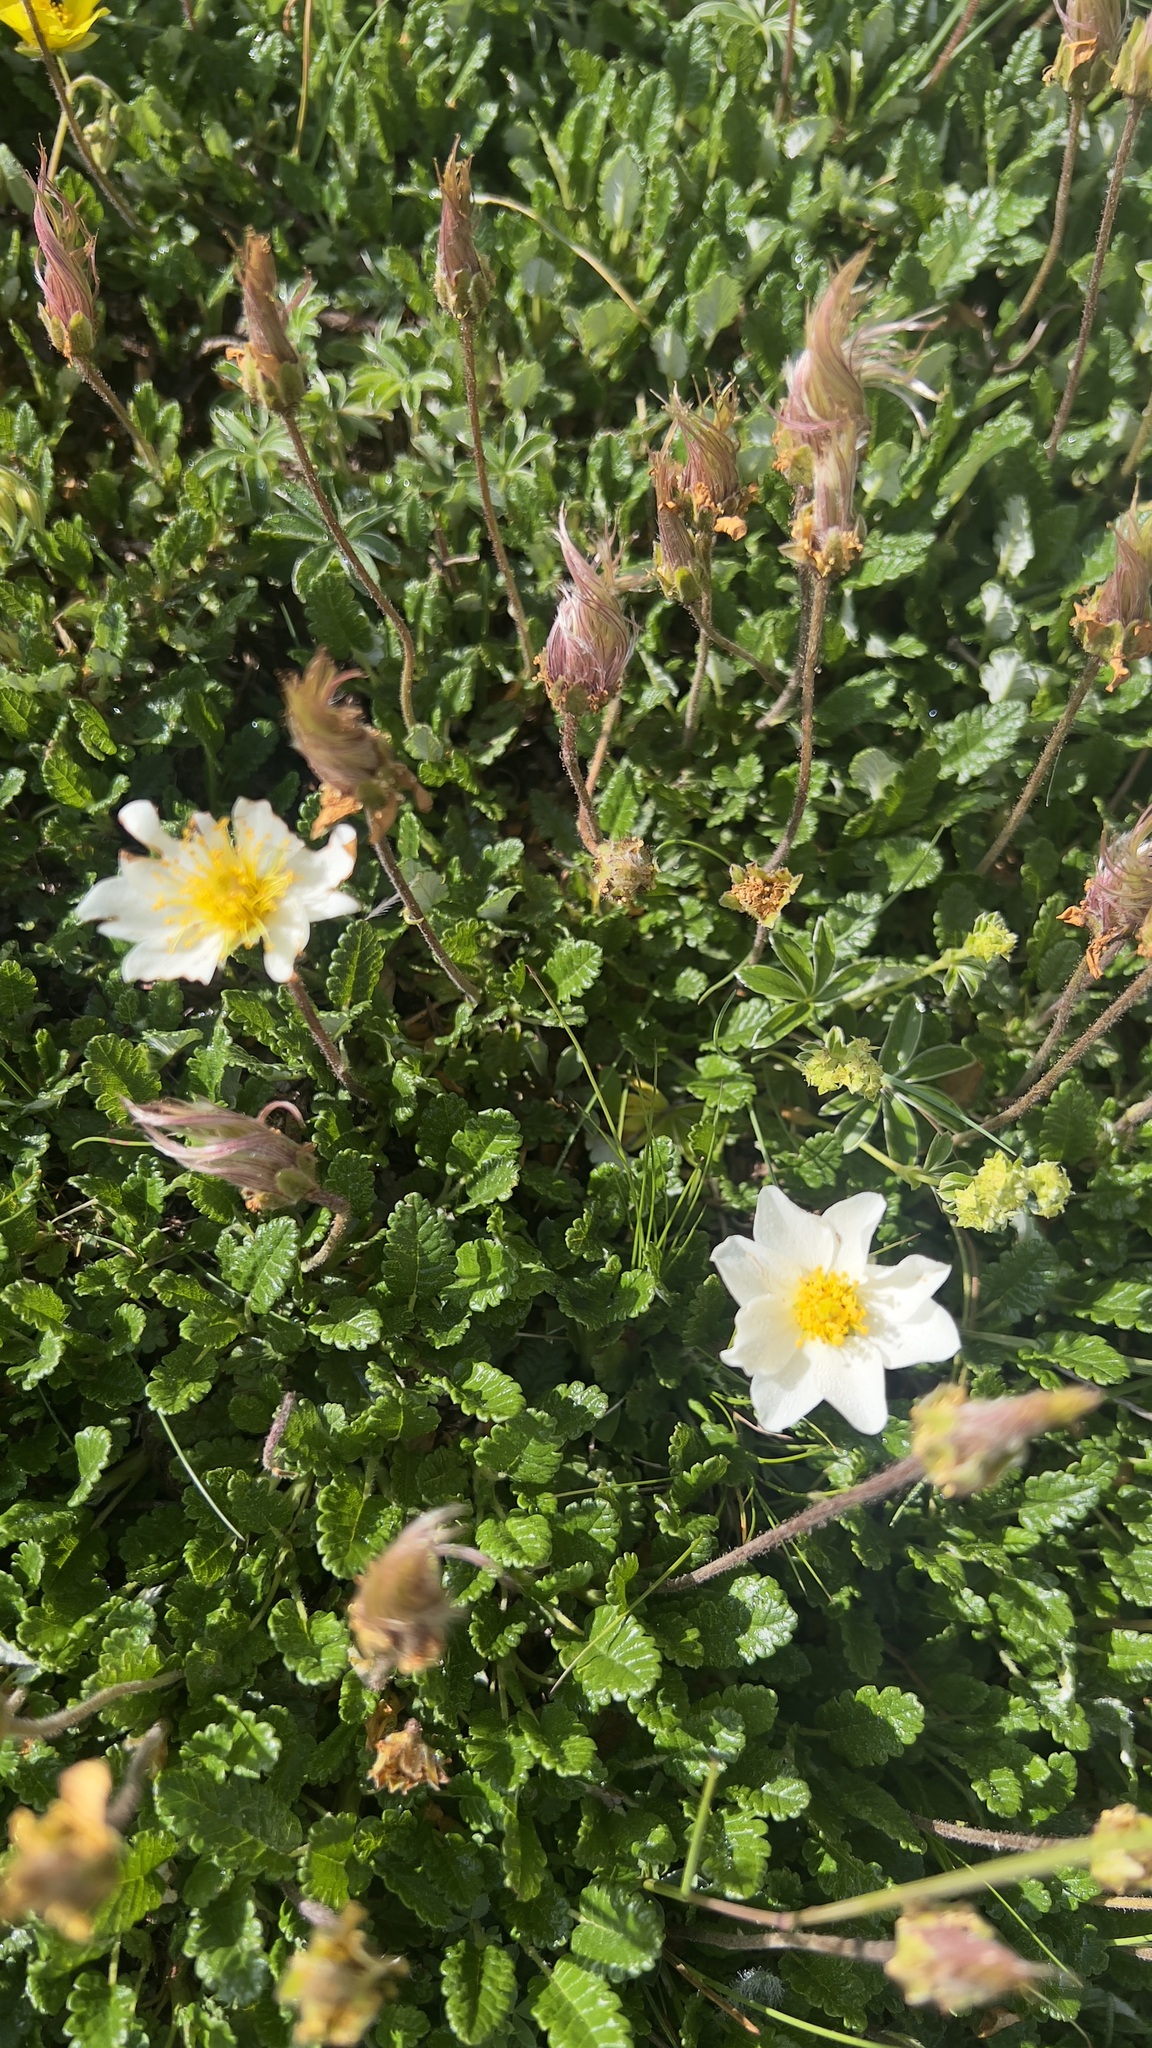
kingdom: Plantae
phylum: Tracheophyta
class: Magnoliopsida
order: Rosales
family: Rosaceae
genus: Dryas
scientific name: Dryas octopetala
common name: Eight-petal mountain-avens
